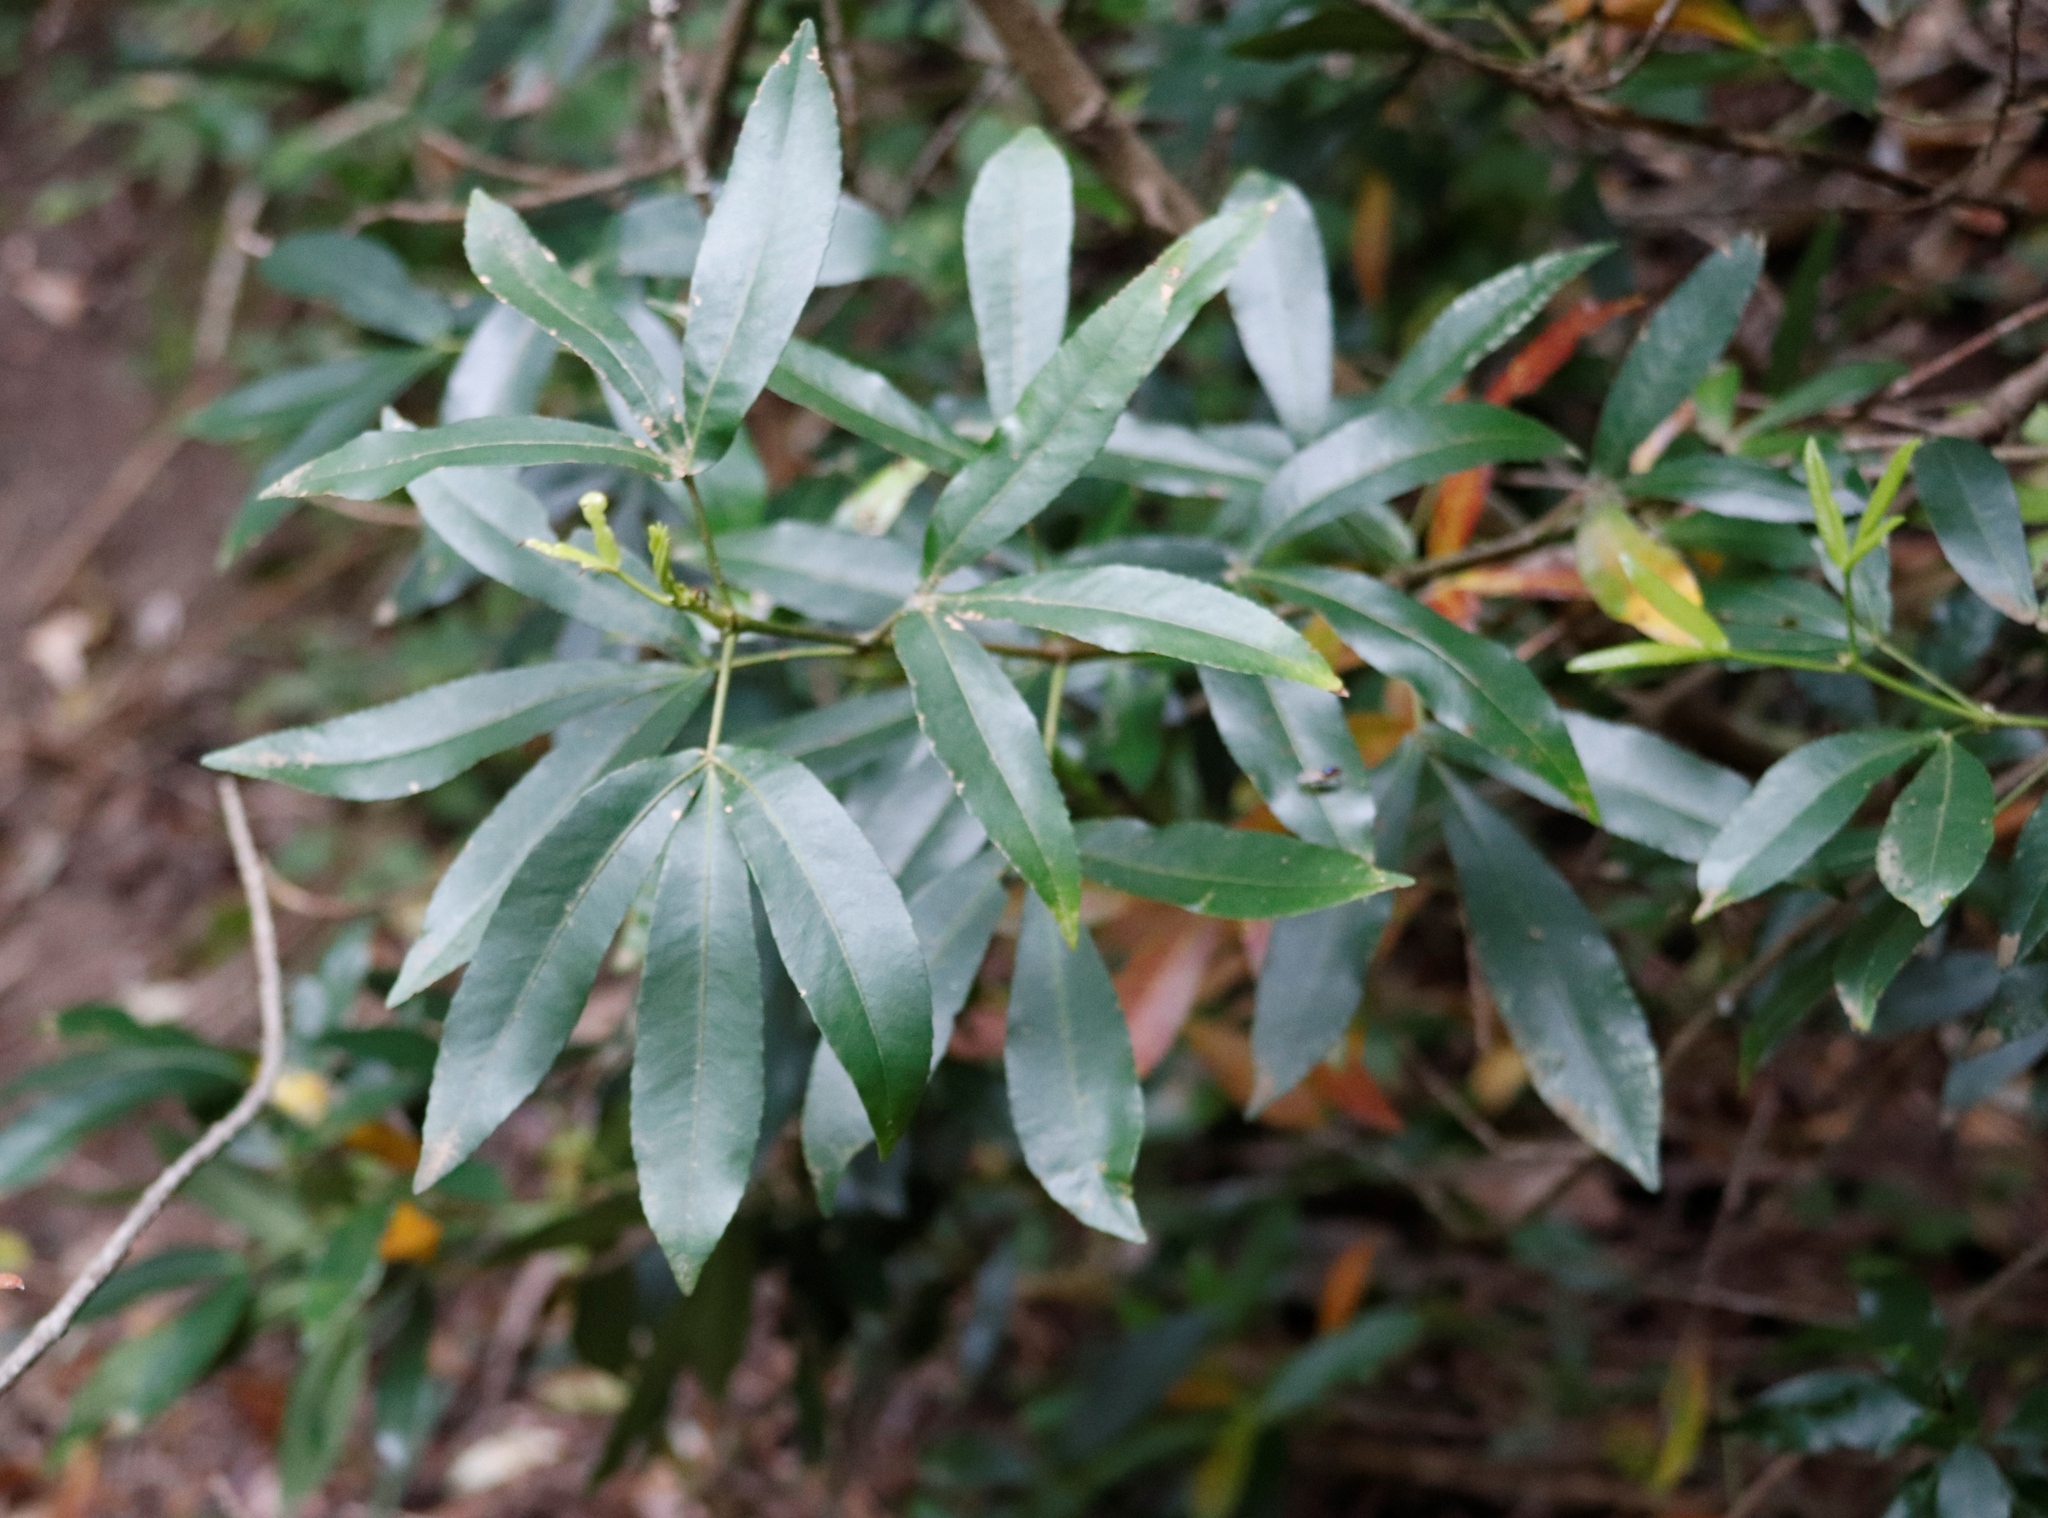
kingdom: Plantae
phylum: Tracheophyta
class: Magnoliopsida
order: Oxalidales
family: Cunoniaceae
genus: Platylophus
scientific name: Platylophus trifoliatus
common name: White alder
